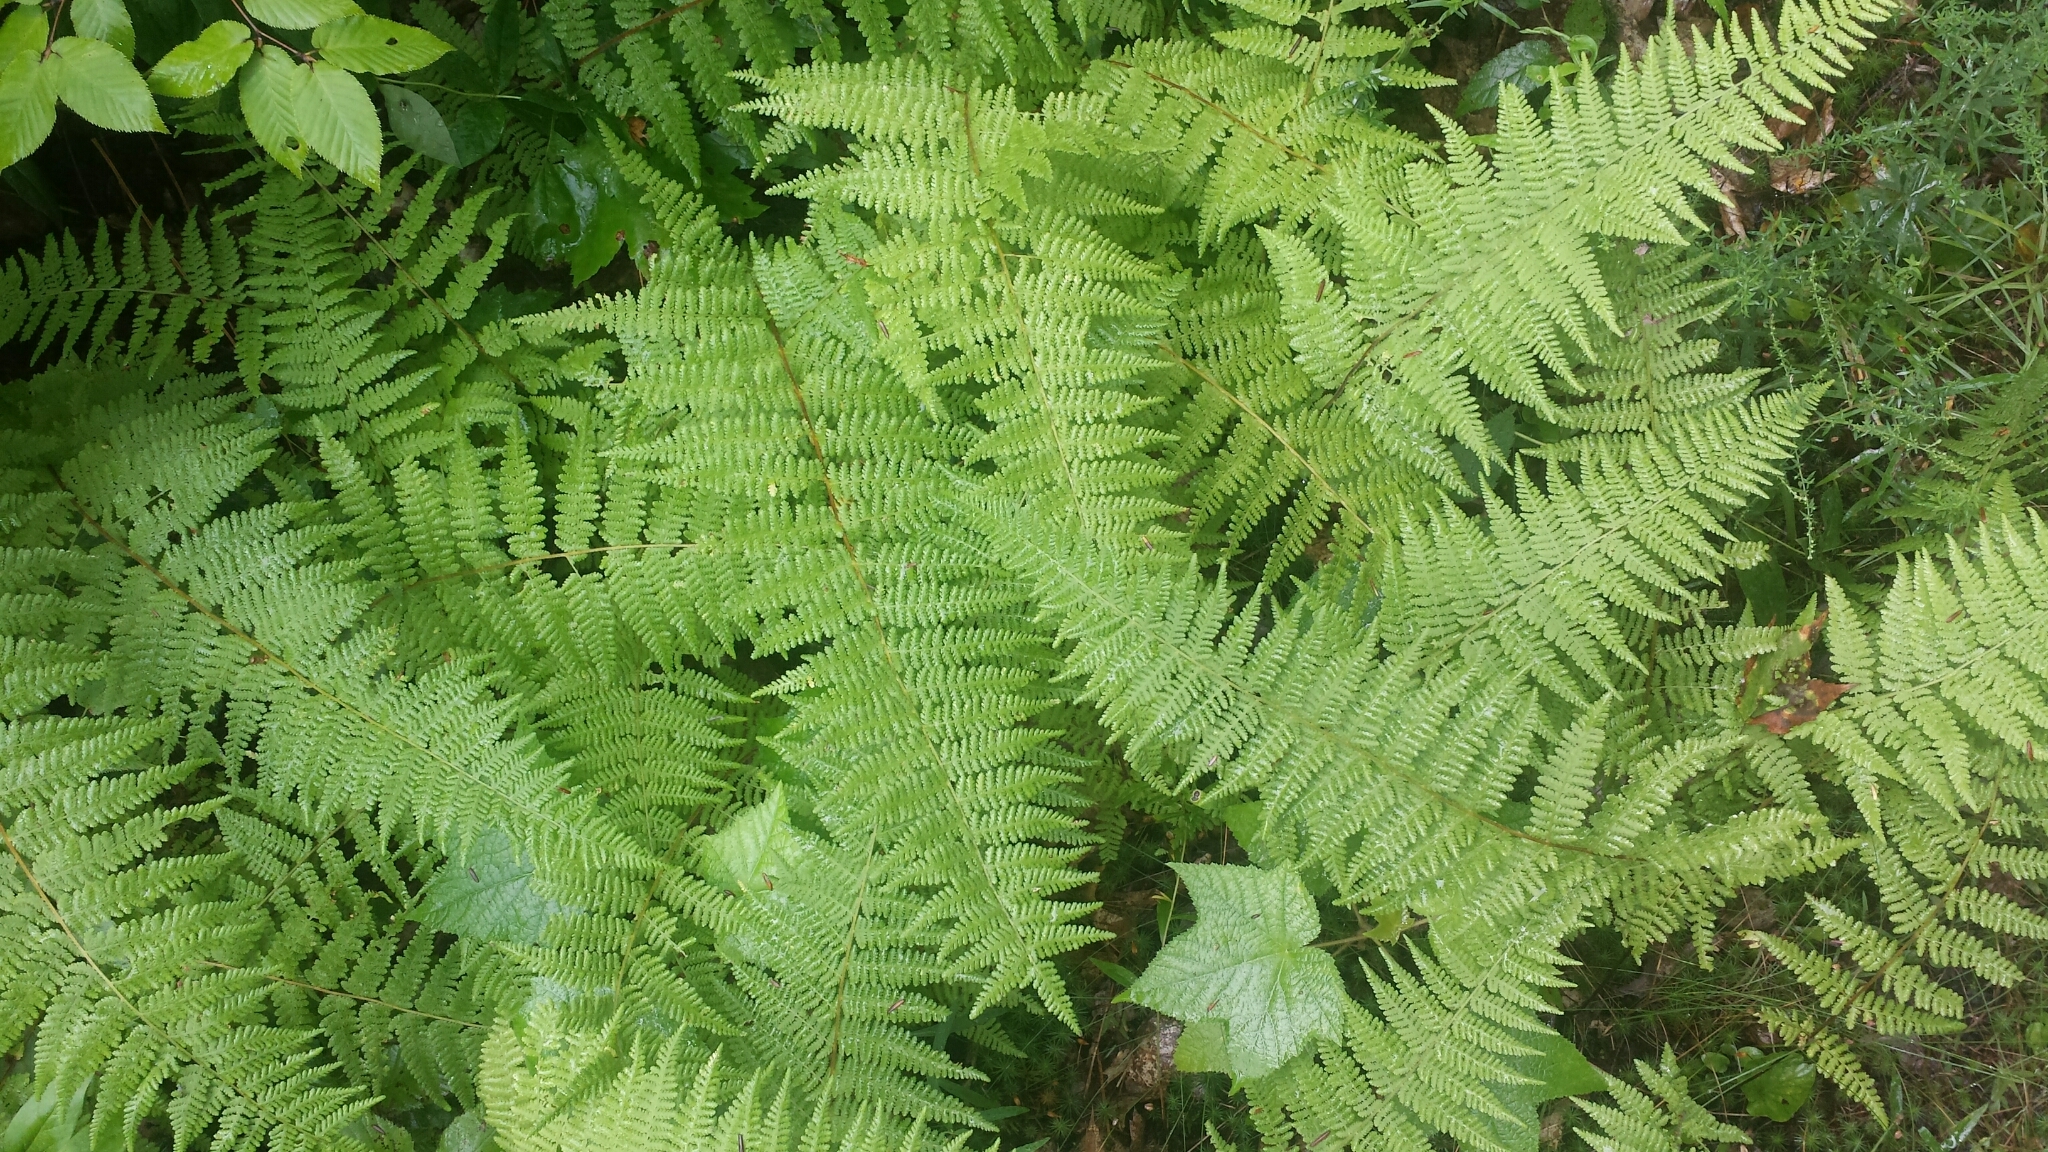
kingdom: Plantae
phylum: Tracheophyta
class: Polypodiopsida
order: Polypodiales
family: Dennstaedtiaceae
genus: Sitobolium
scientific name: Sitobolium punctilobum
